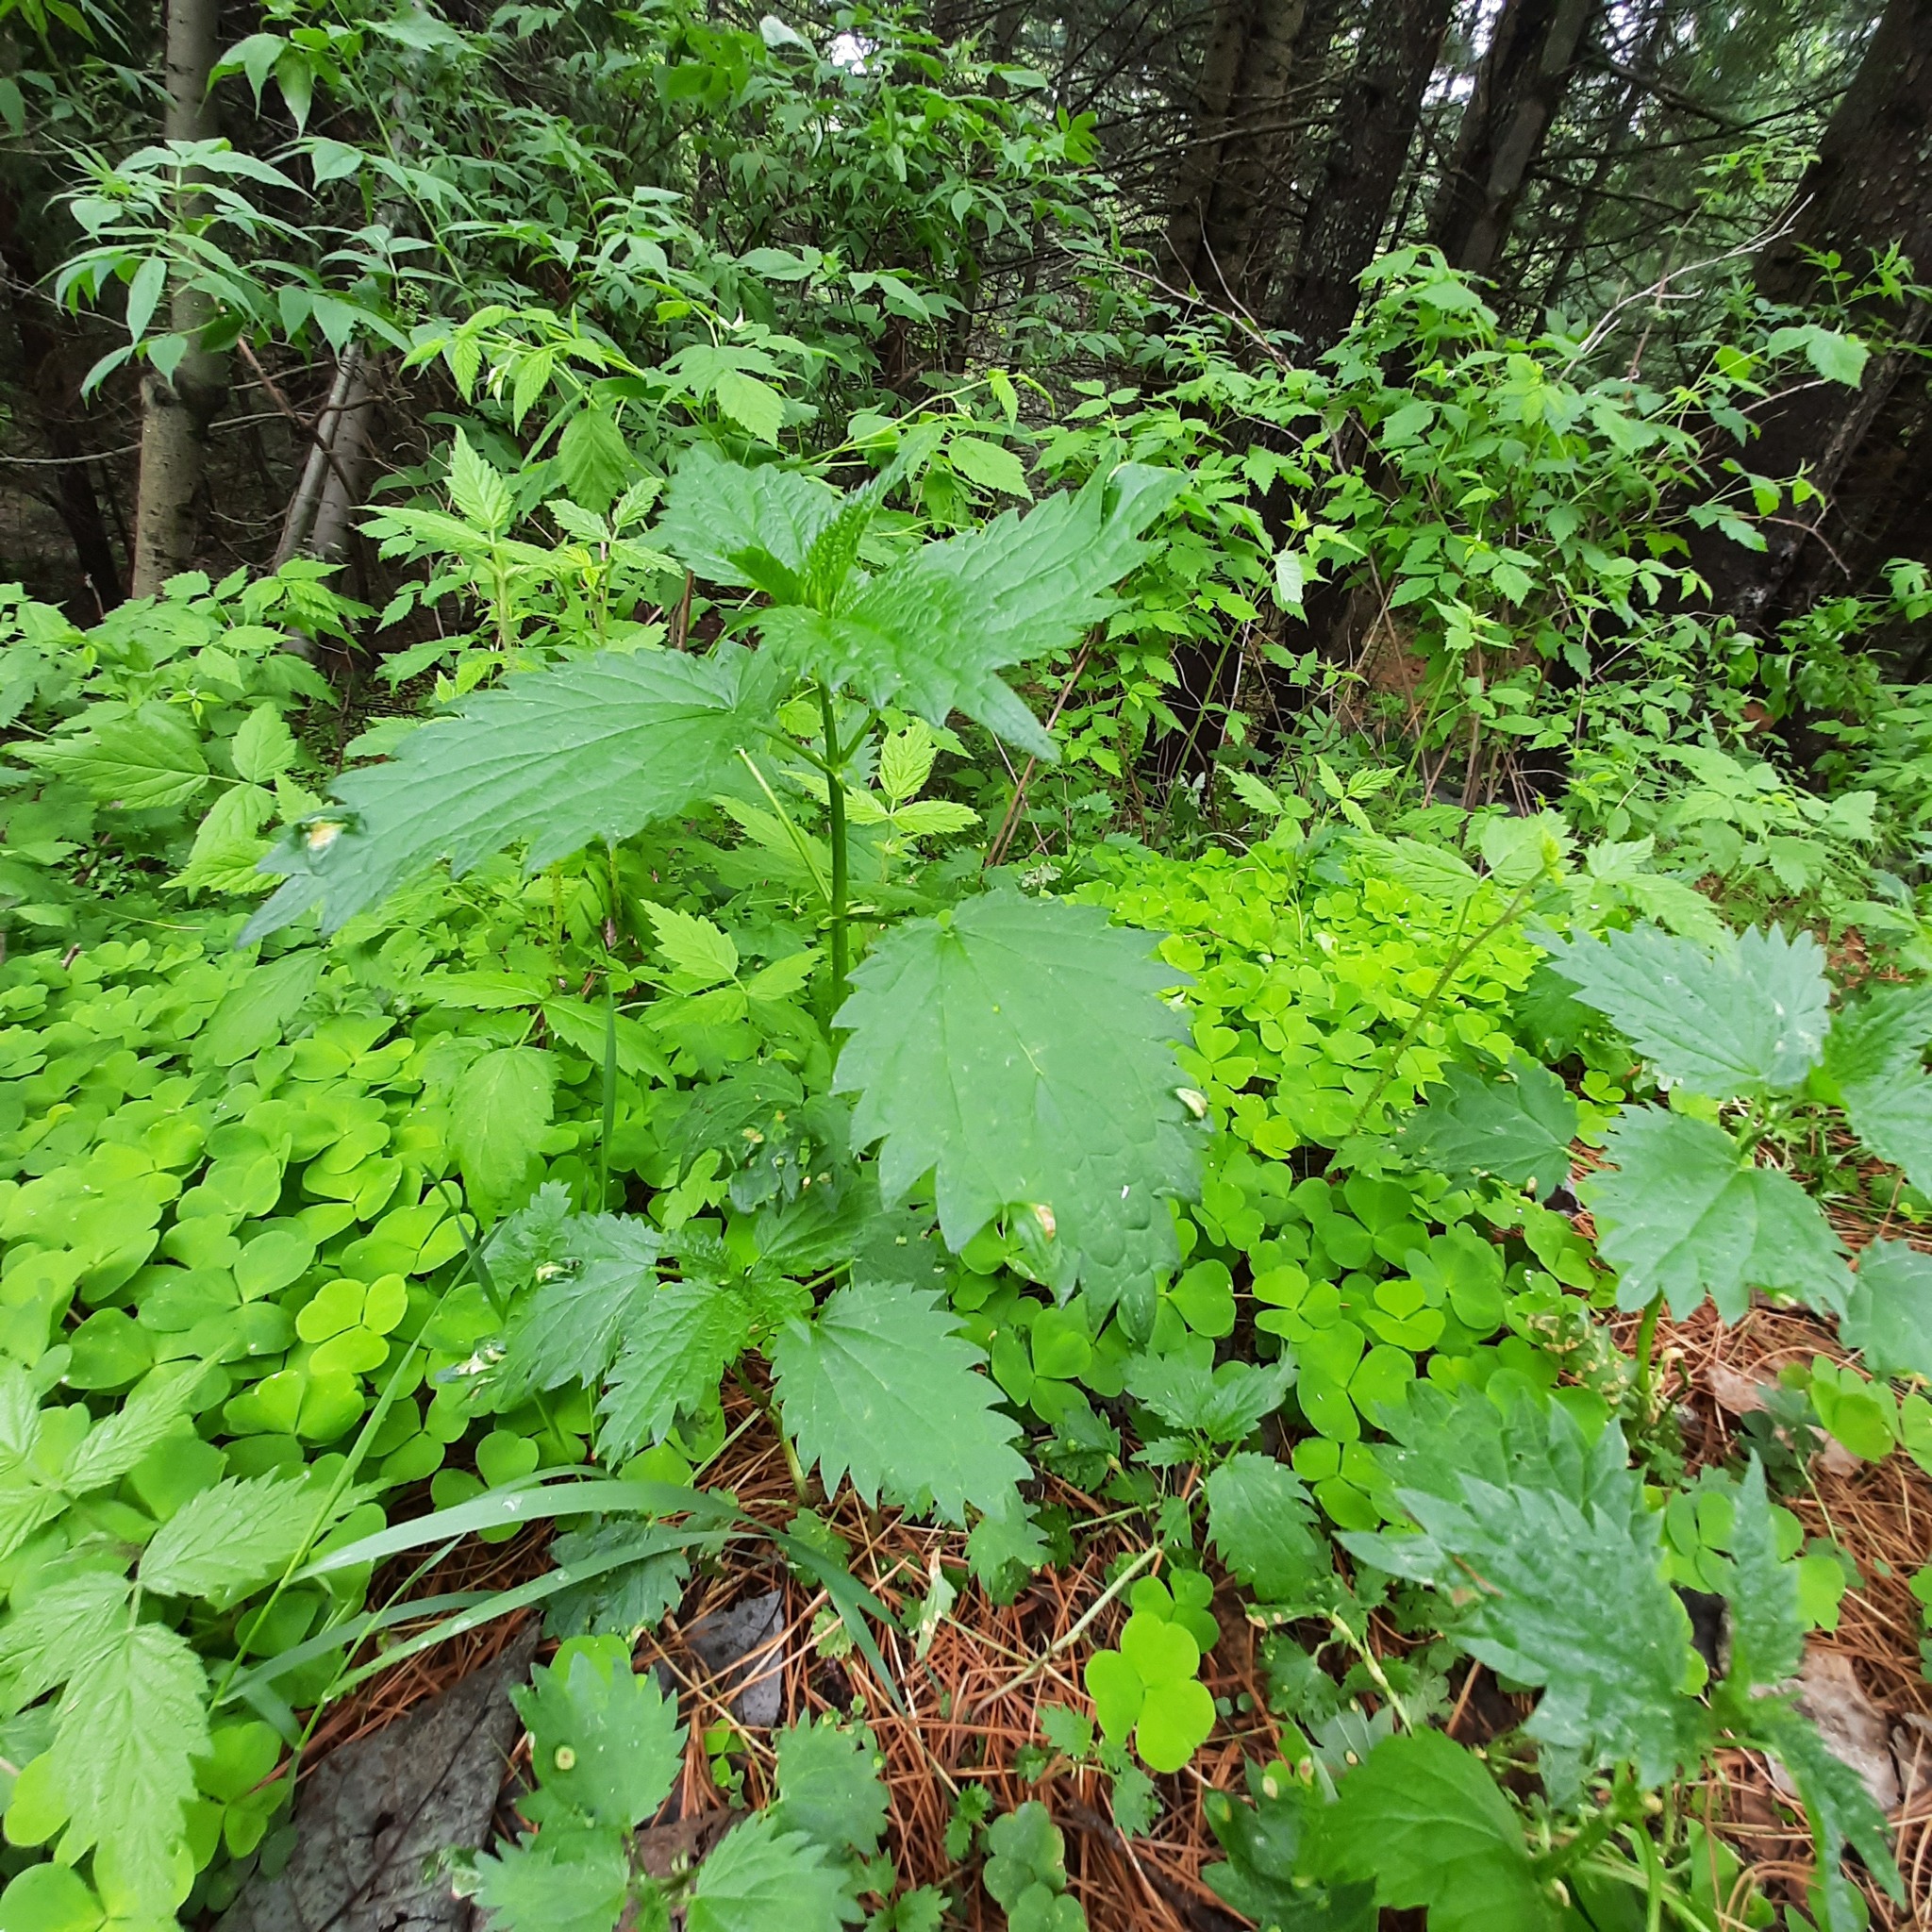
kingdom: Plantae
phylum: Tracheophyta
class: Magnoliopsida
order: Rosales
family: Urticaceae
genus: Urtica
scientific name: Urtica dioica
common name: Common nettle
